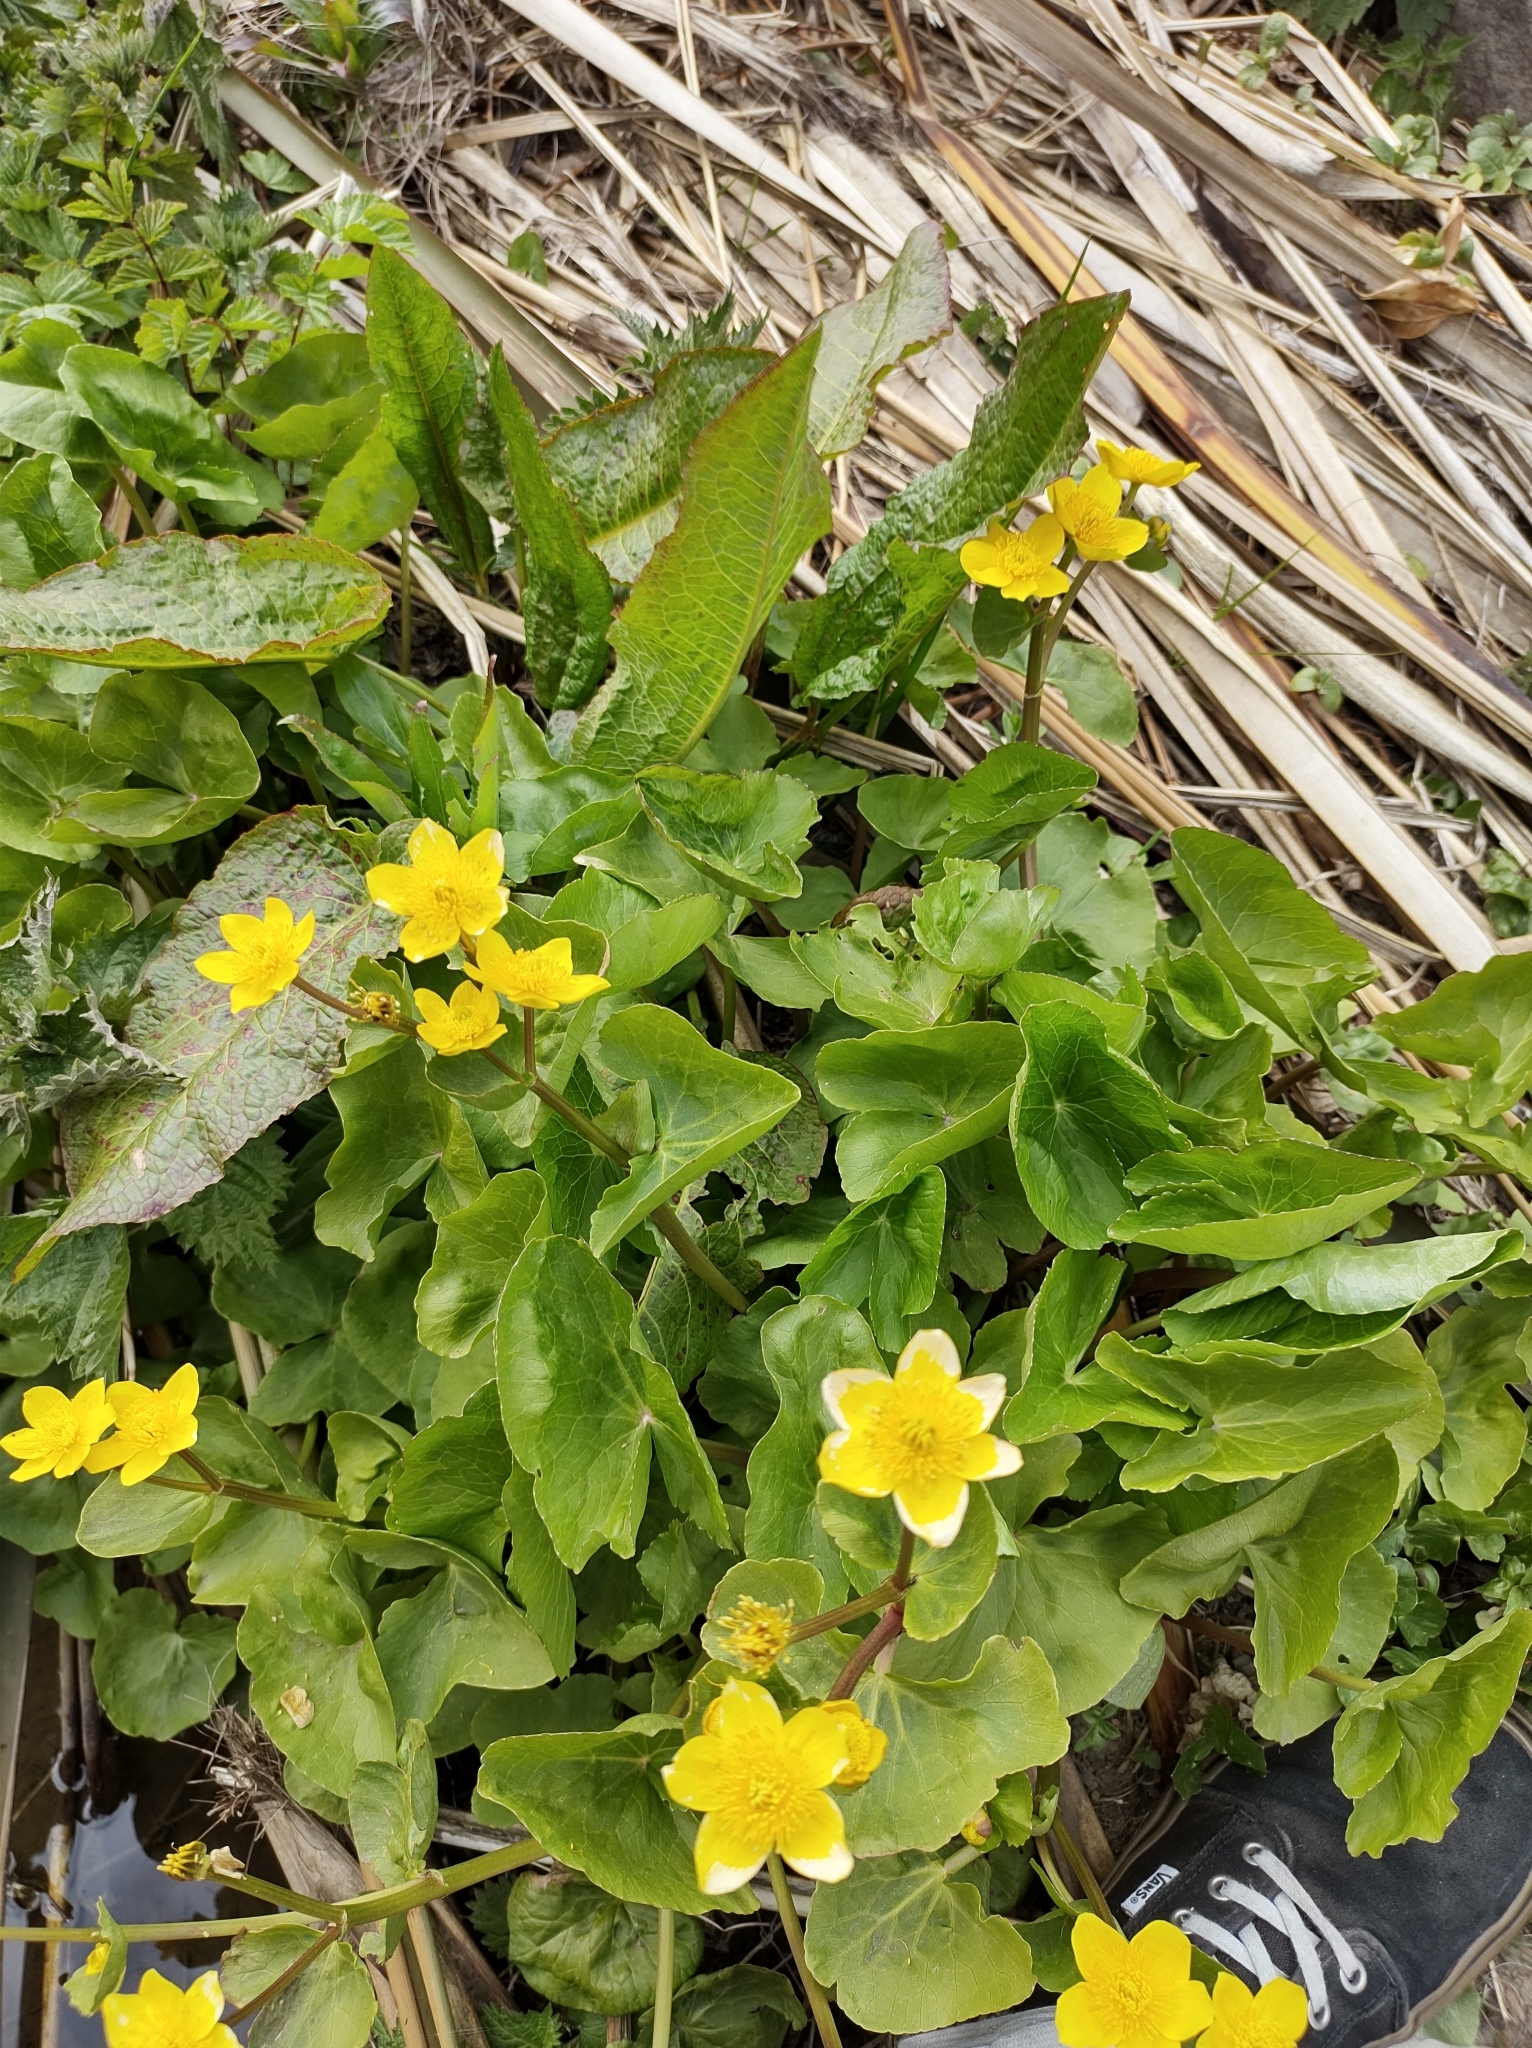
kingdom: Plantae
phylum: Tracheophyta
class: Magnoliopsida
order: Ranunculales
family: Ranunculaceae
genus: Caltha
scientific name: Caltha palustris
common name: Marsh marigold
